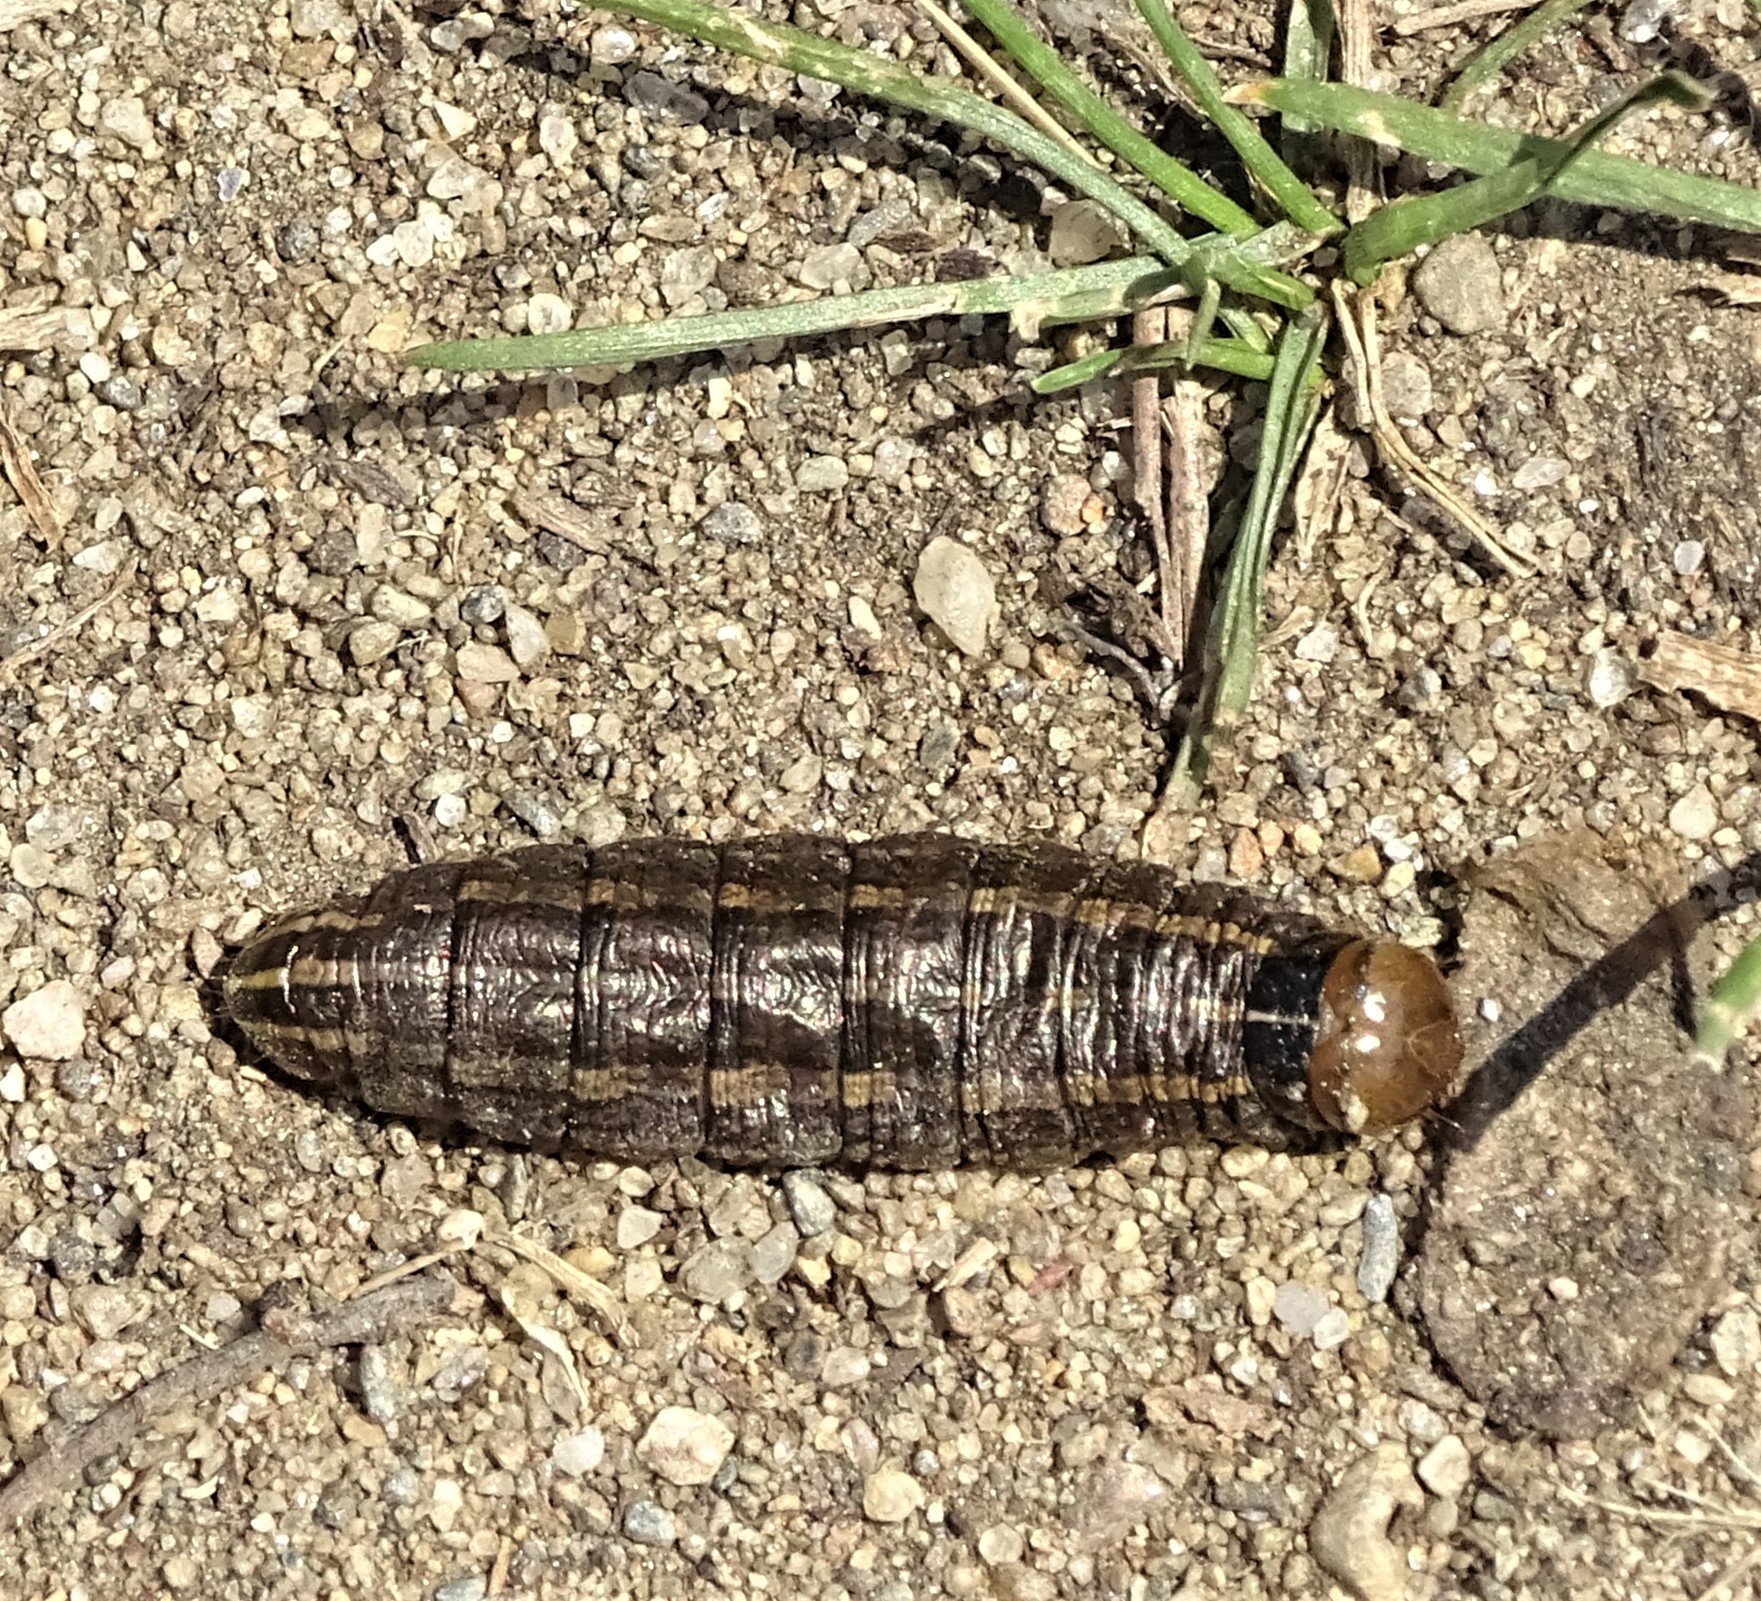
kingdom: Animalia
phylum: Arthropoda
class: Insecta
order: Lepidoptera
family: Noctuidae
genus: Nephelodes
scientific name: Nephelodes minians
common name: Bronzed cutworm
